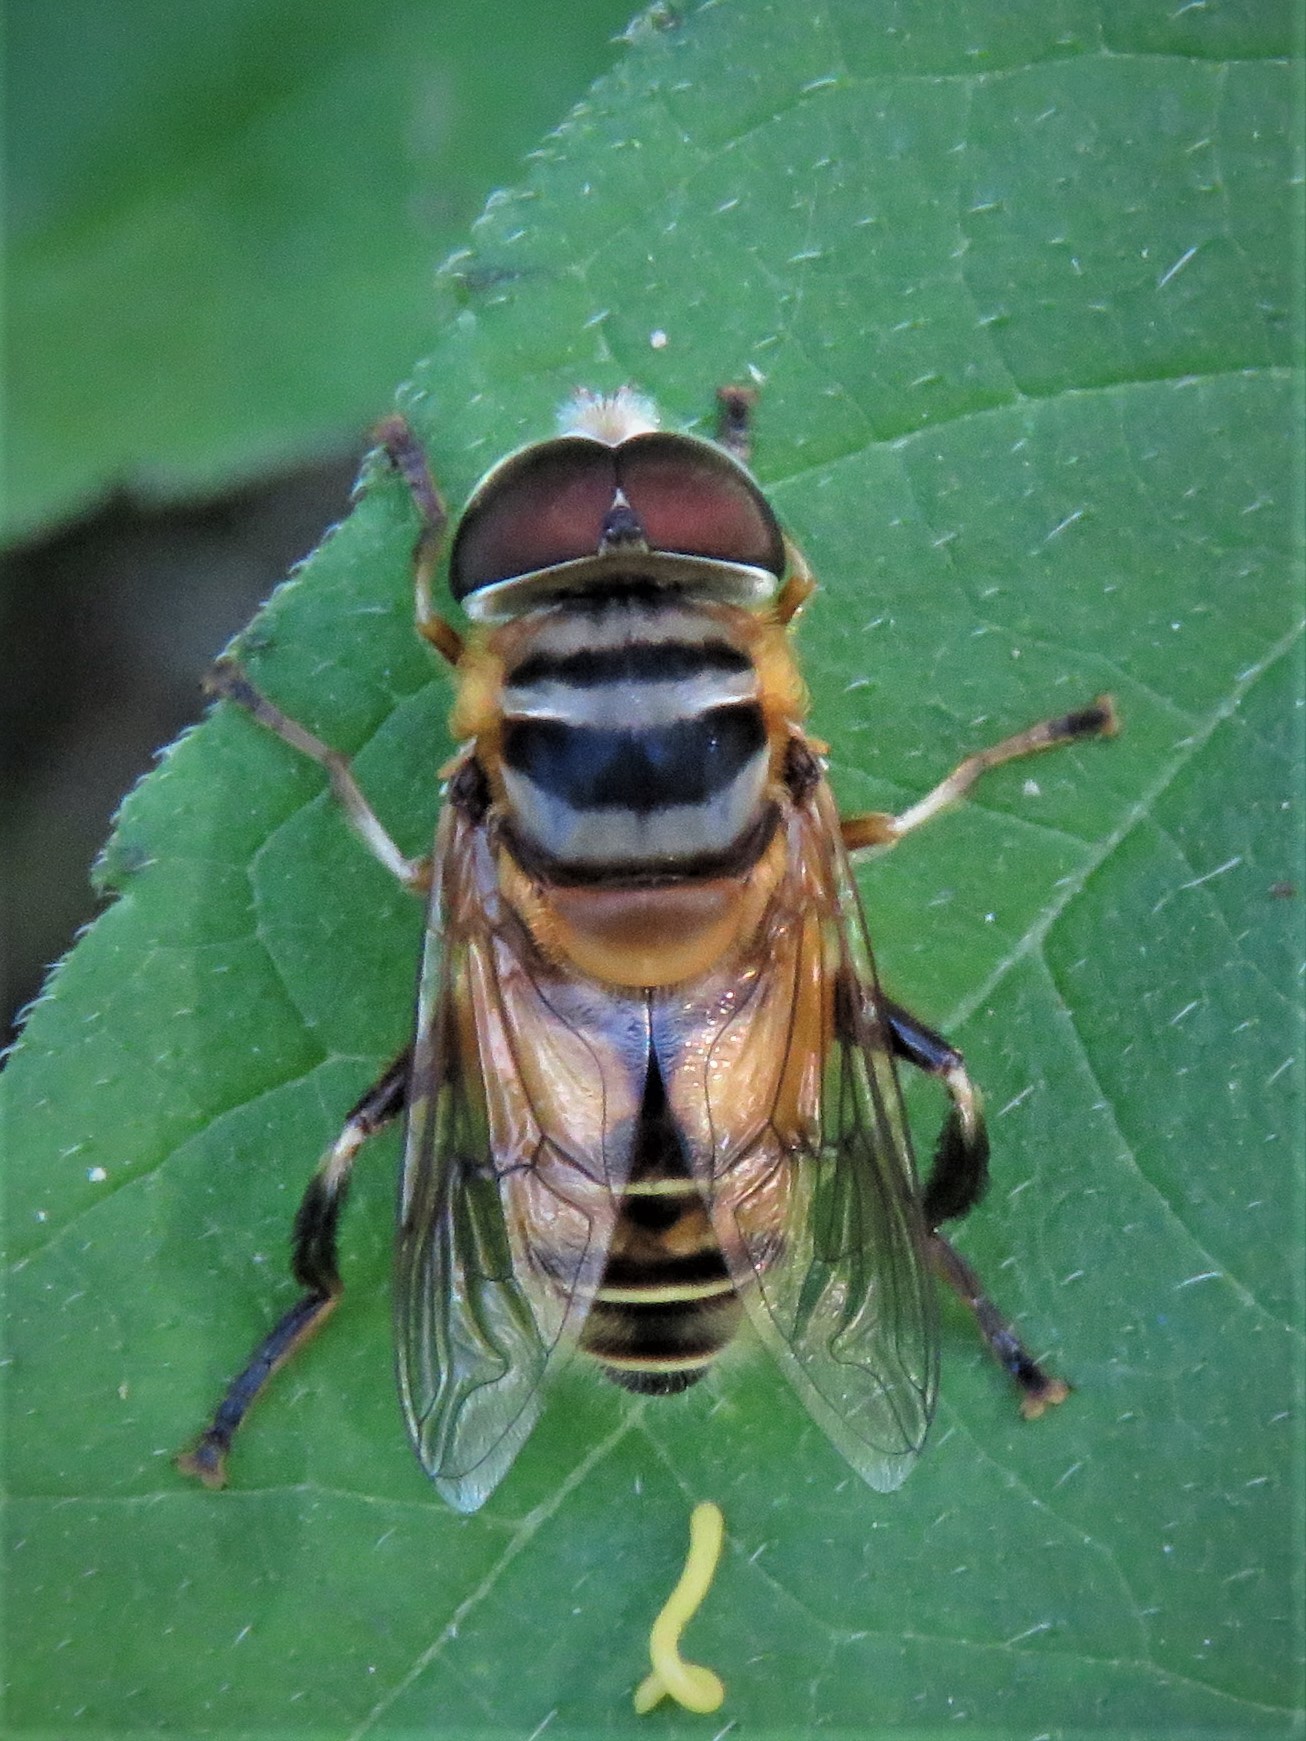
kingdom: Animalia
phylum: Arthropoda
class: Insecta
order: Diptera
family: Syrphidae
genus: Palpada
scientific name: Palpada vinetorum
